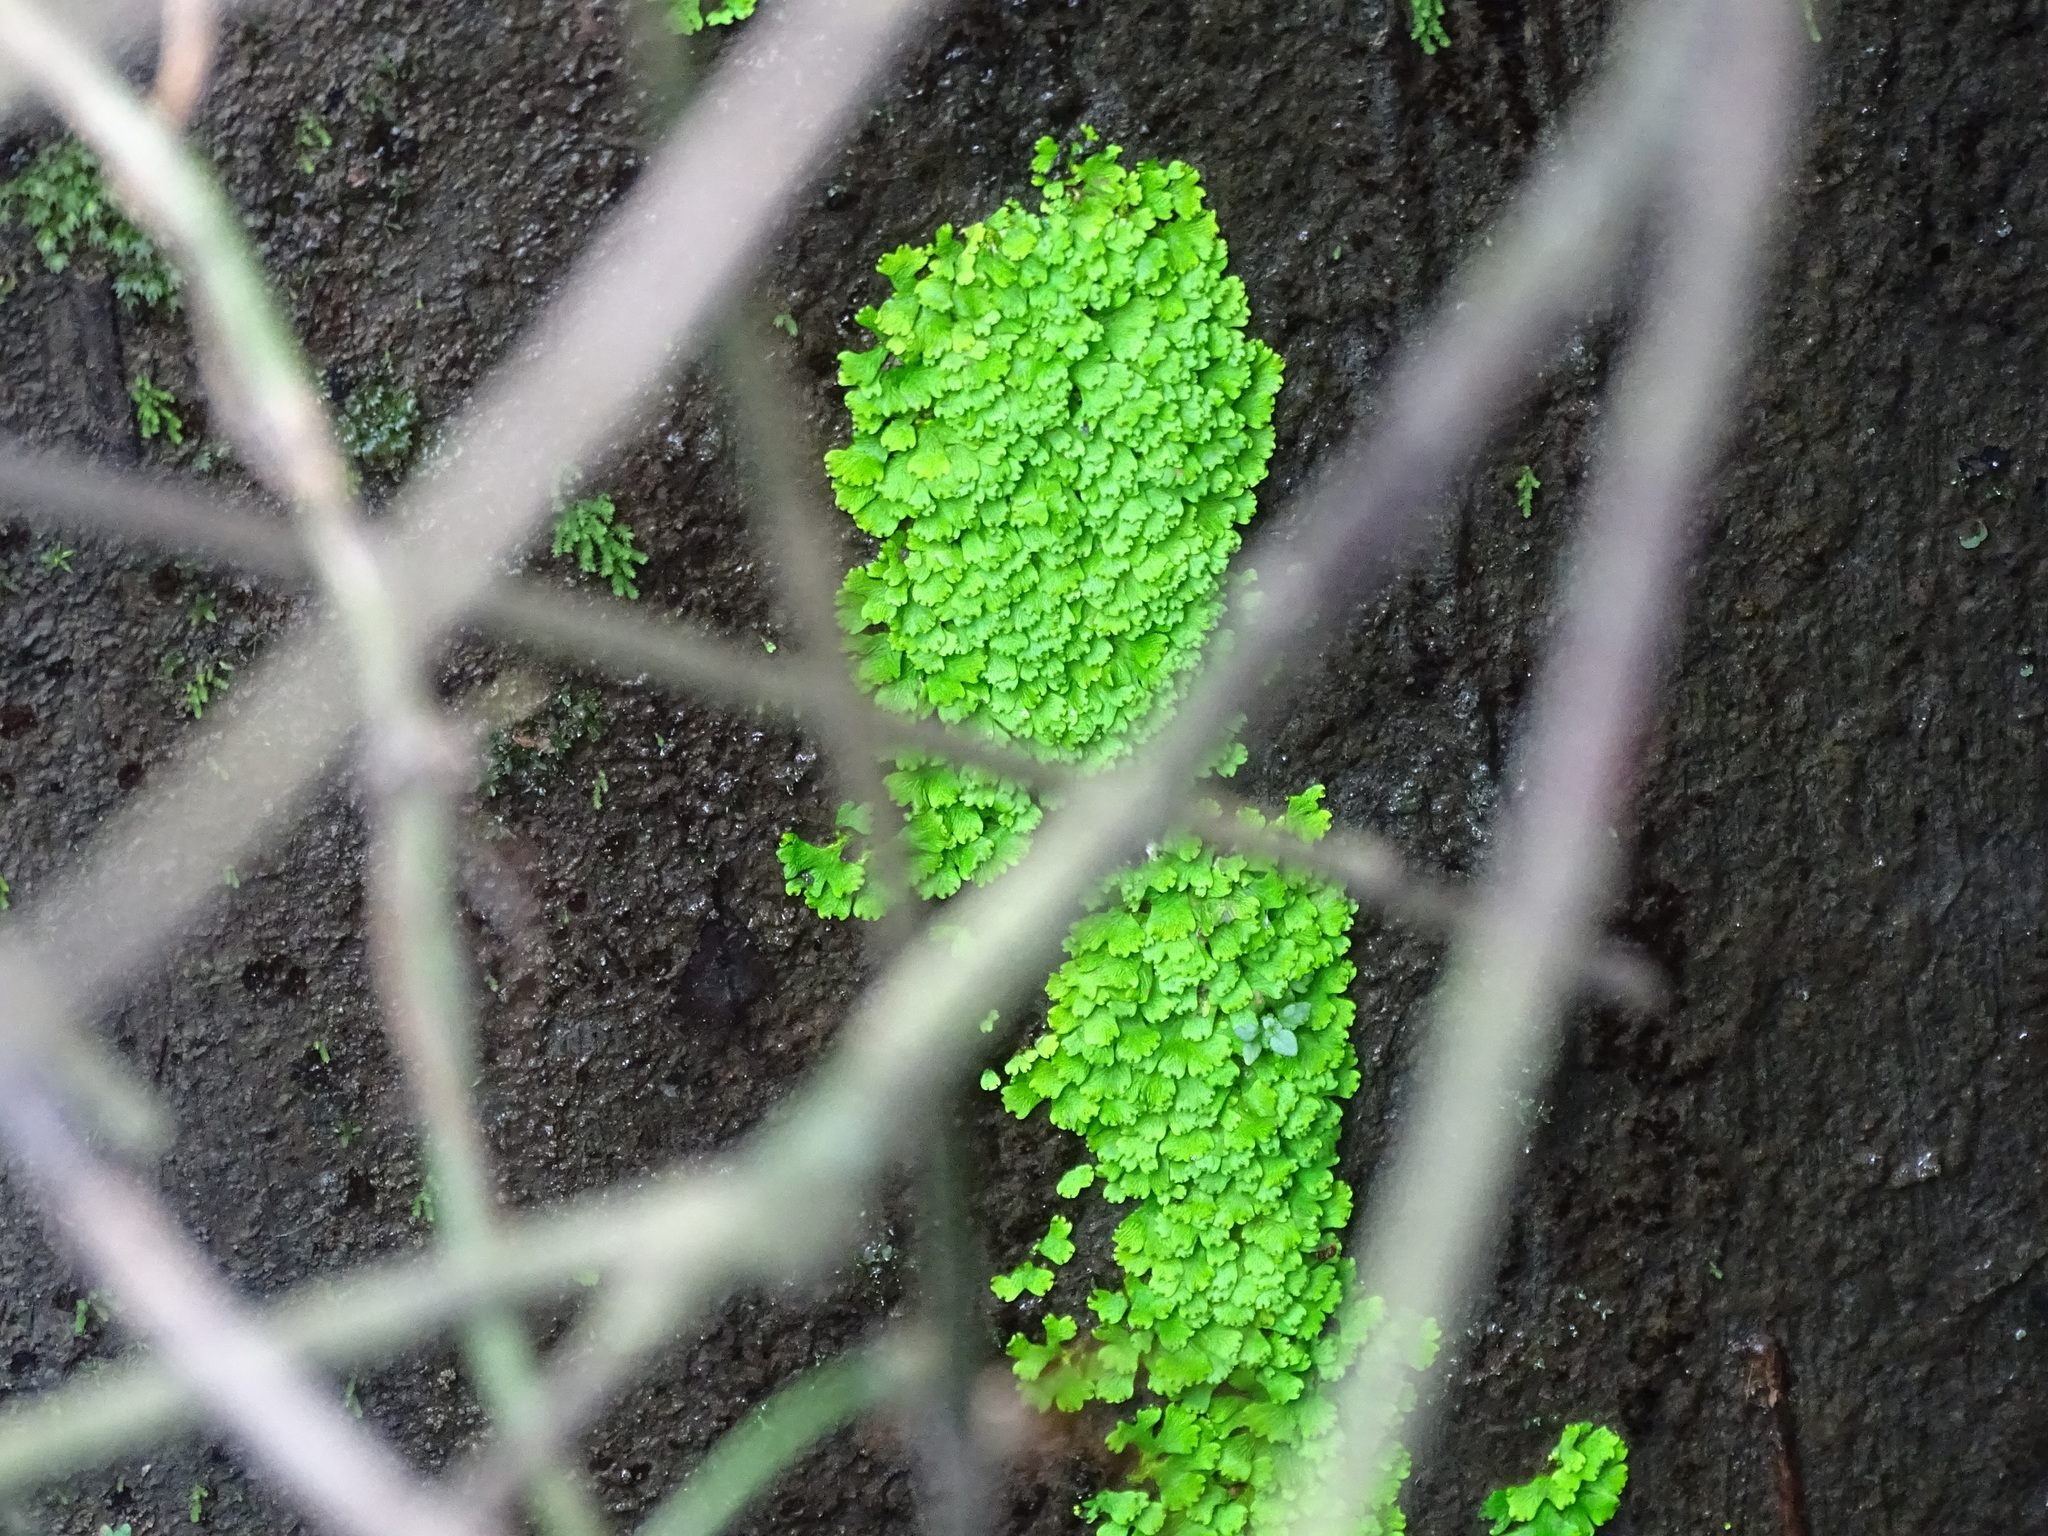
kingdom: Plantae
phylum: Marchantiophyta
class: Marchantiopsida
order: Marchantiales
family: Cyathodiaceae
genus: Cyathodium
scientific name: Cyathodium smaragdinum
